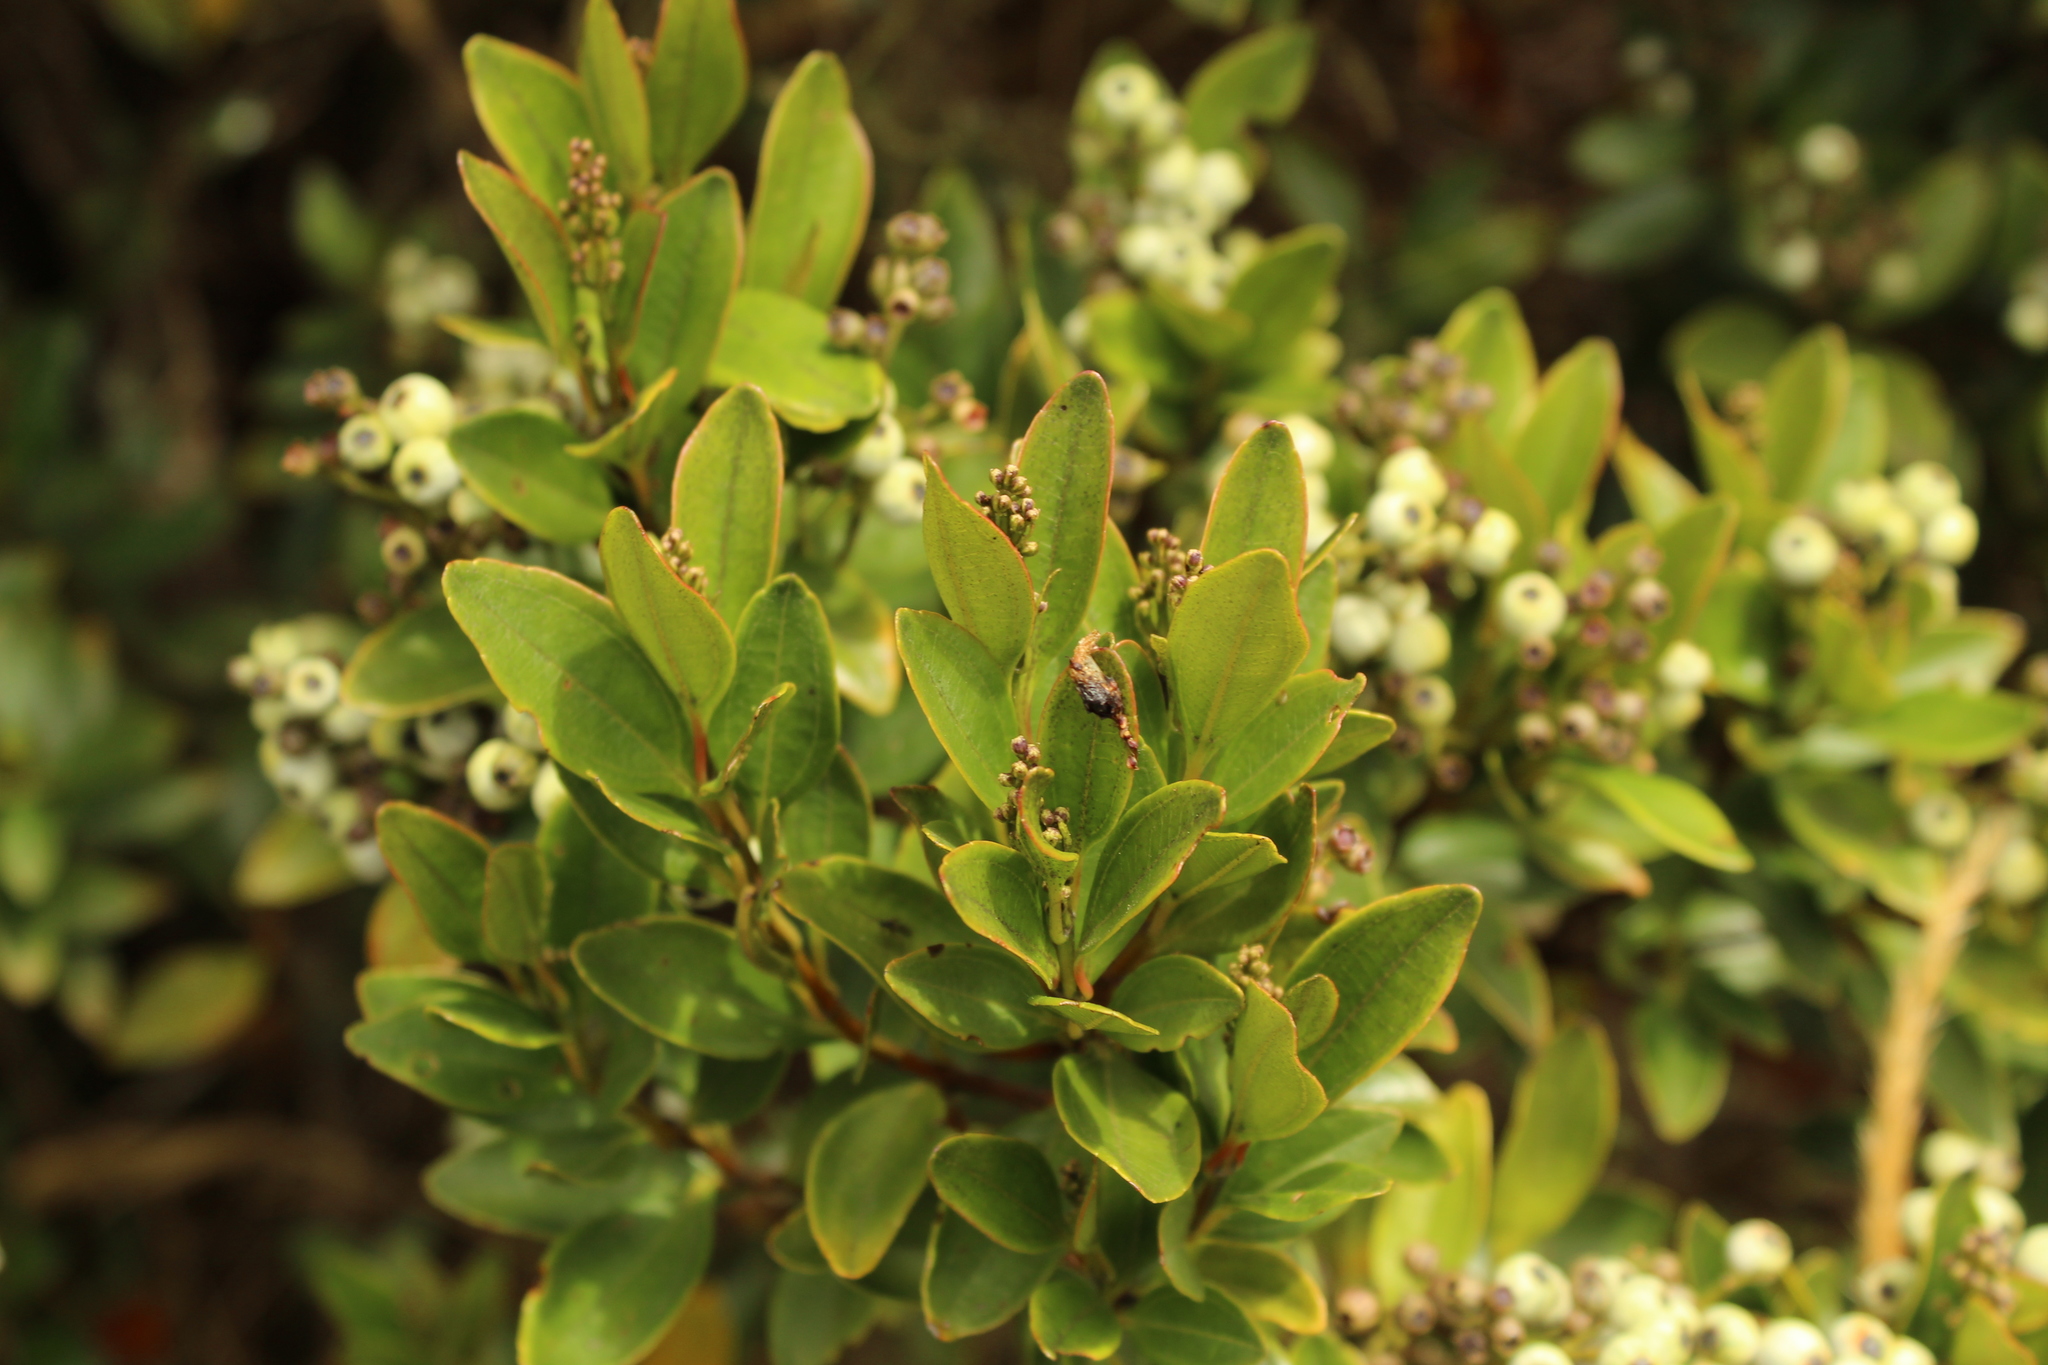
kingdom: Plantae
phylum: Tracheophyta
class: Magnoliopsida
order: Myrtales
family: Melastomataceae
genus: Miconia
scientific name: Miconia ligustrina
